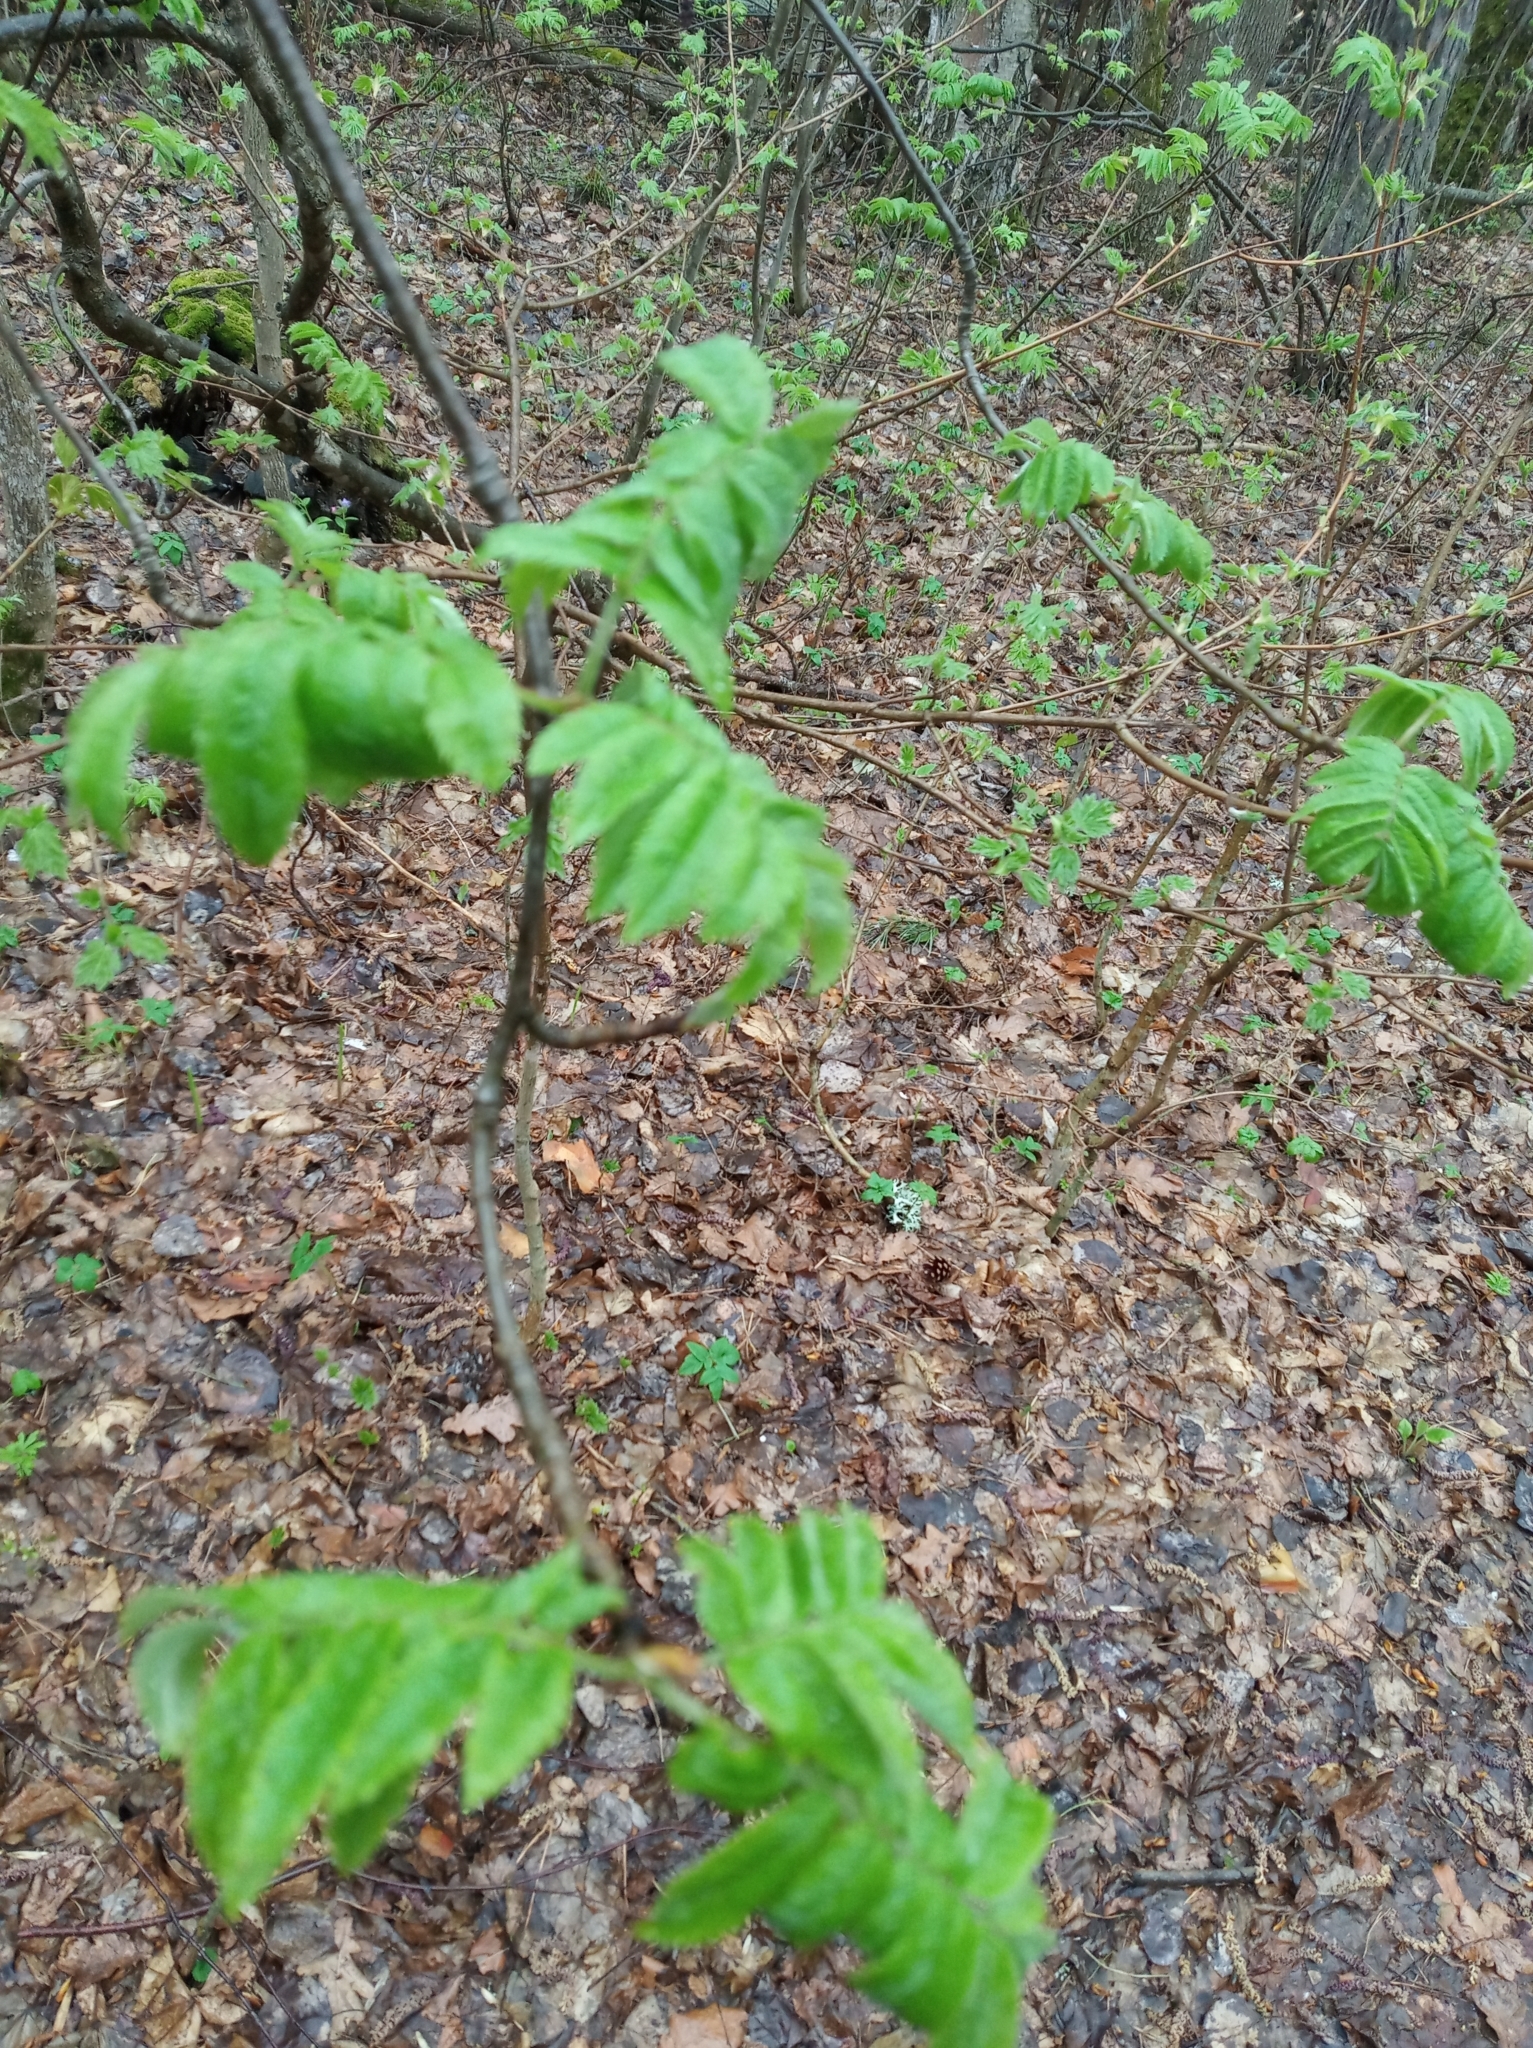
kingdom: Plantae
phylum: Tracheophyta
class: Magnoliopsida
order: Rosales
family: Rosaceae
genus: Sorbus
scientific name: Sorbus aucuparia
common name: Rowan
